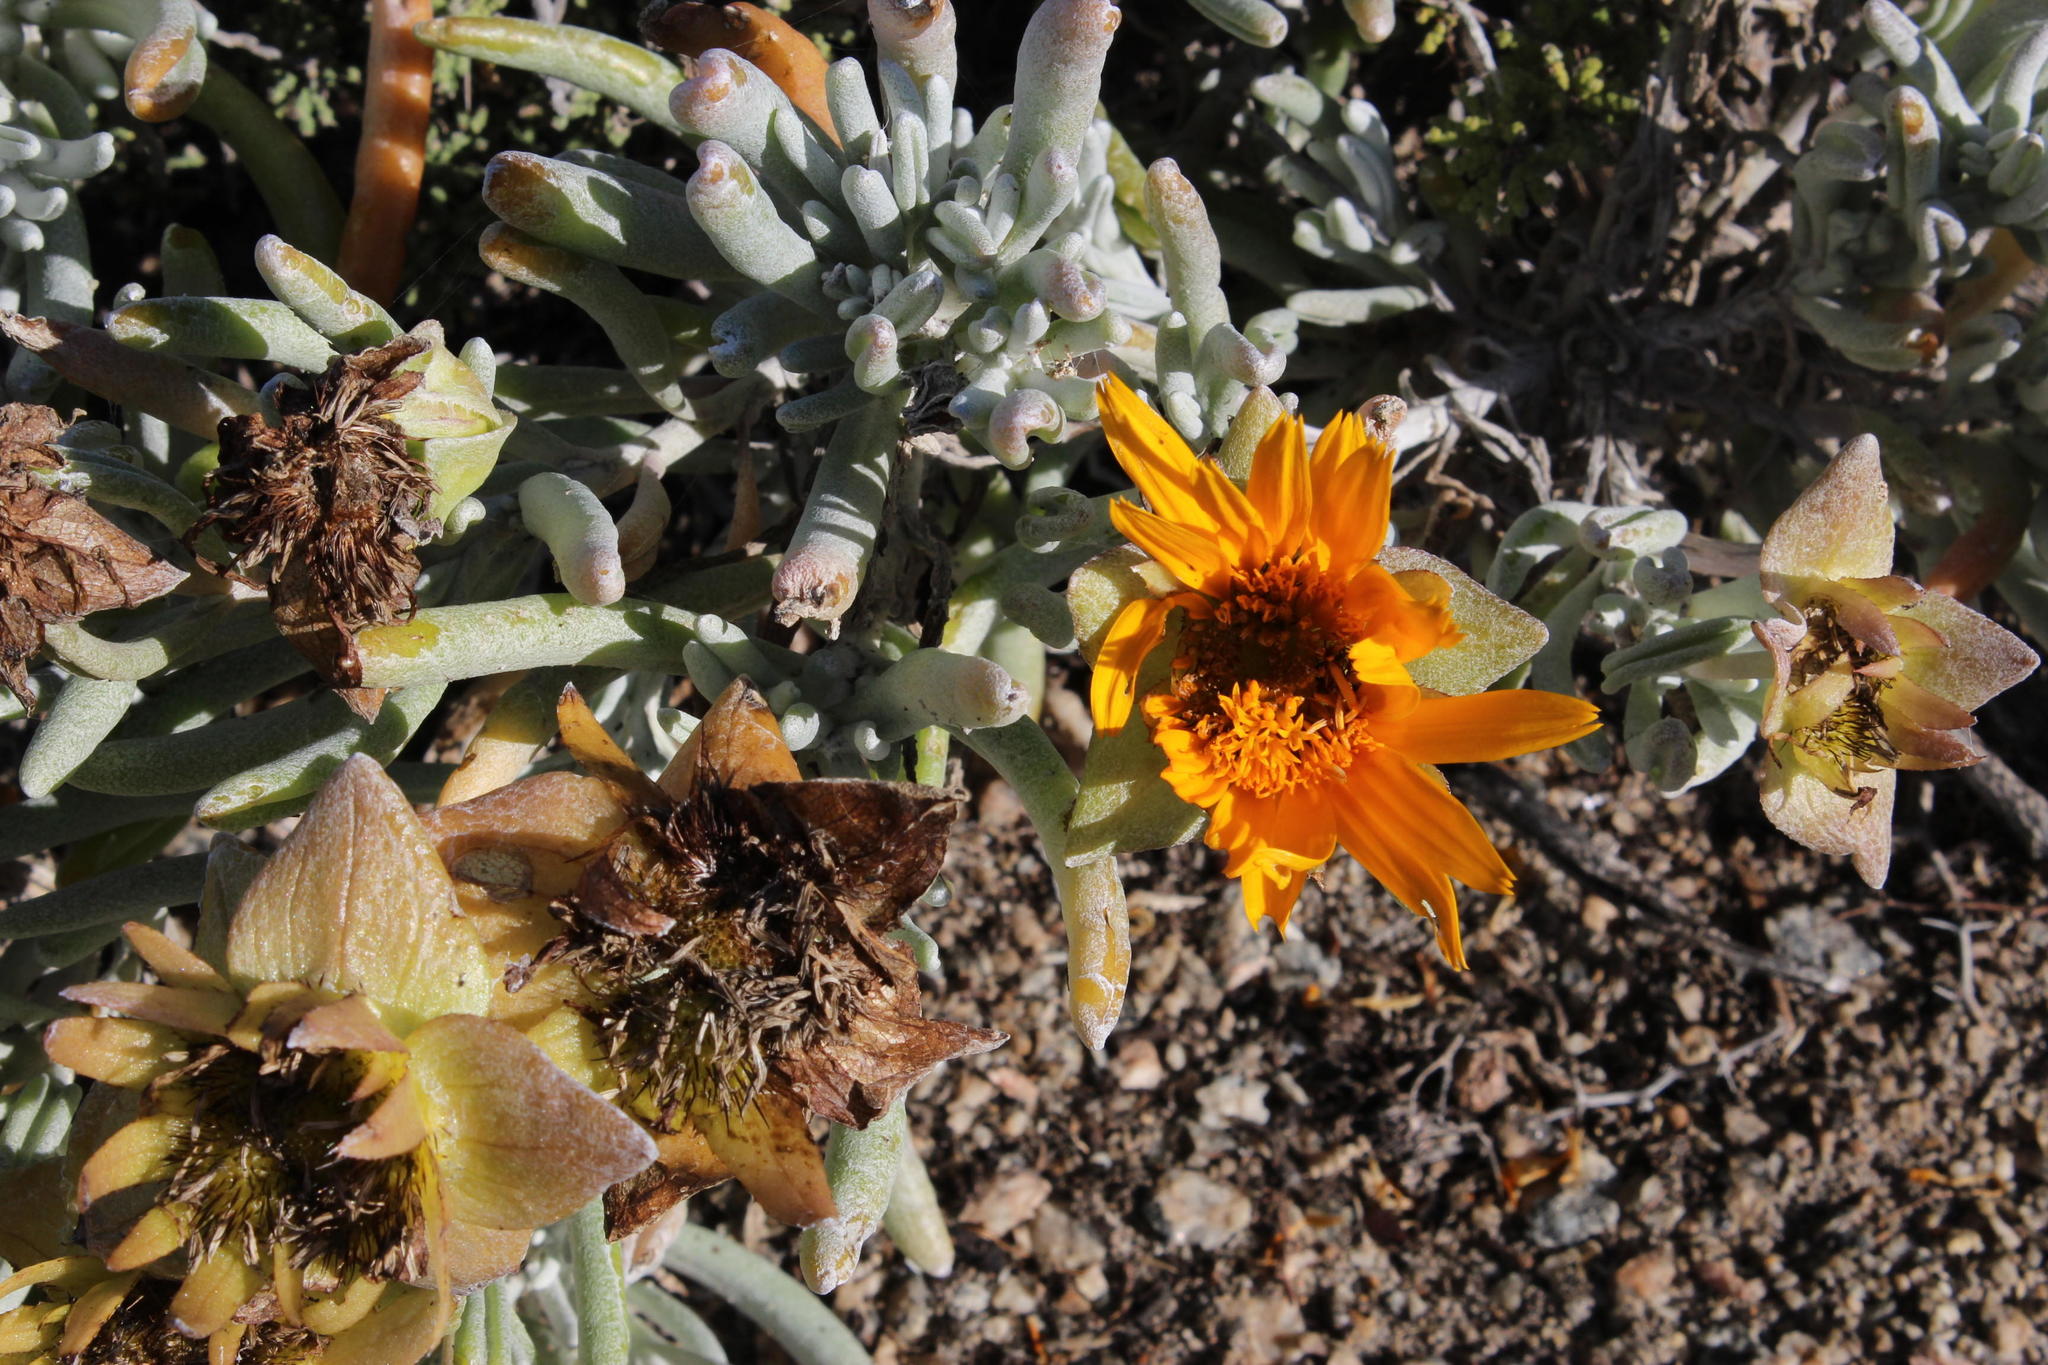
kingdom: Plantae
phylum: Tracheophyta
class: Magnoliopsida
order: Asterales
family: Asteraceae
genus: Didelta
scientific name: Didelta carnosa
